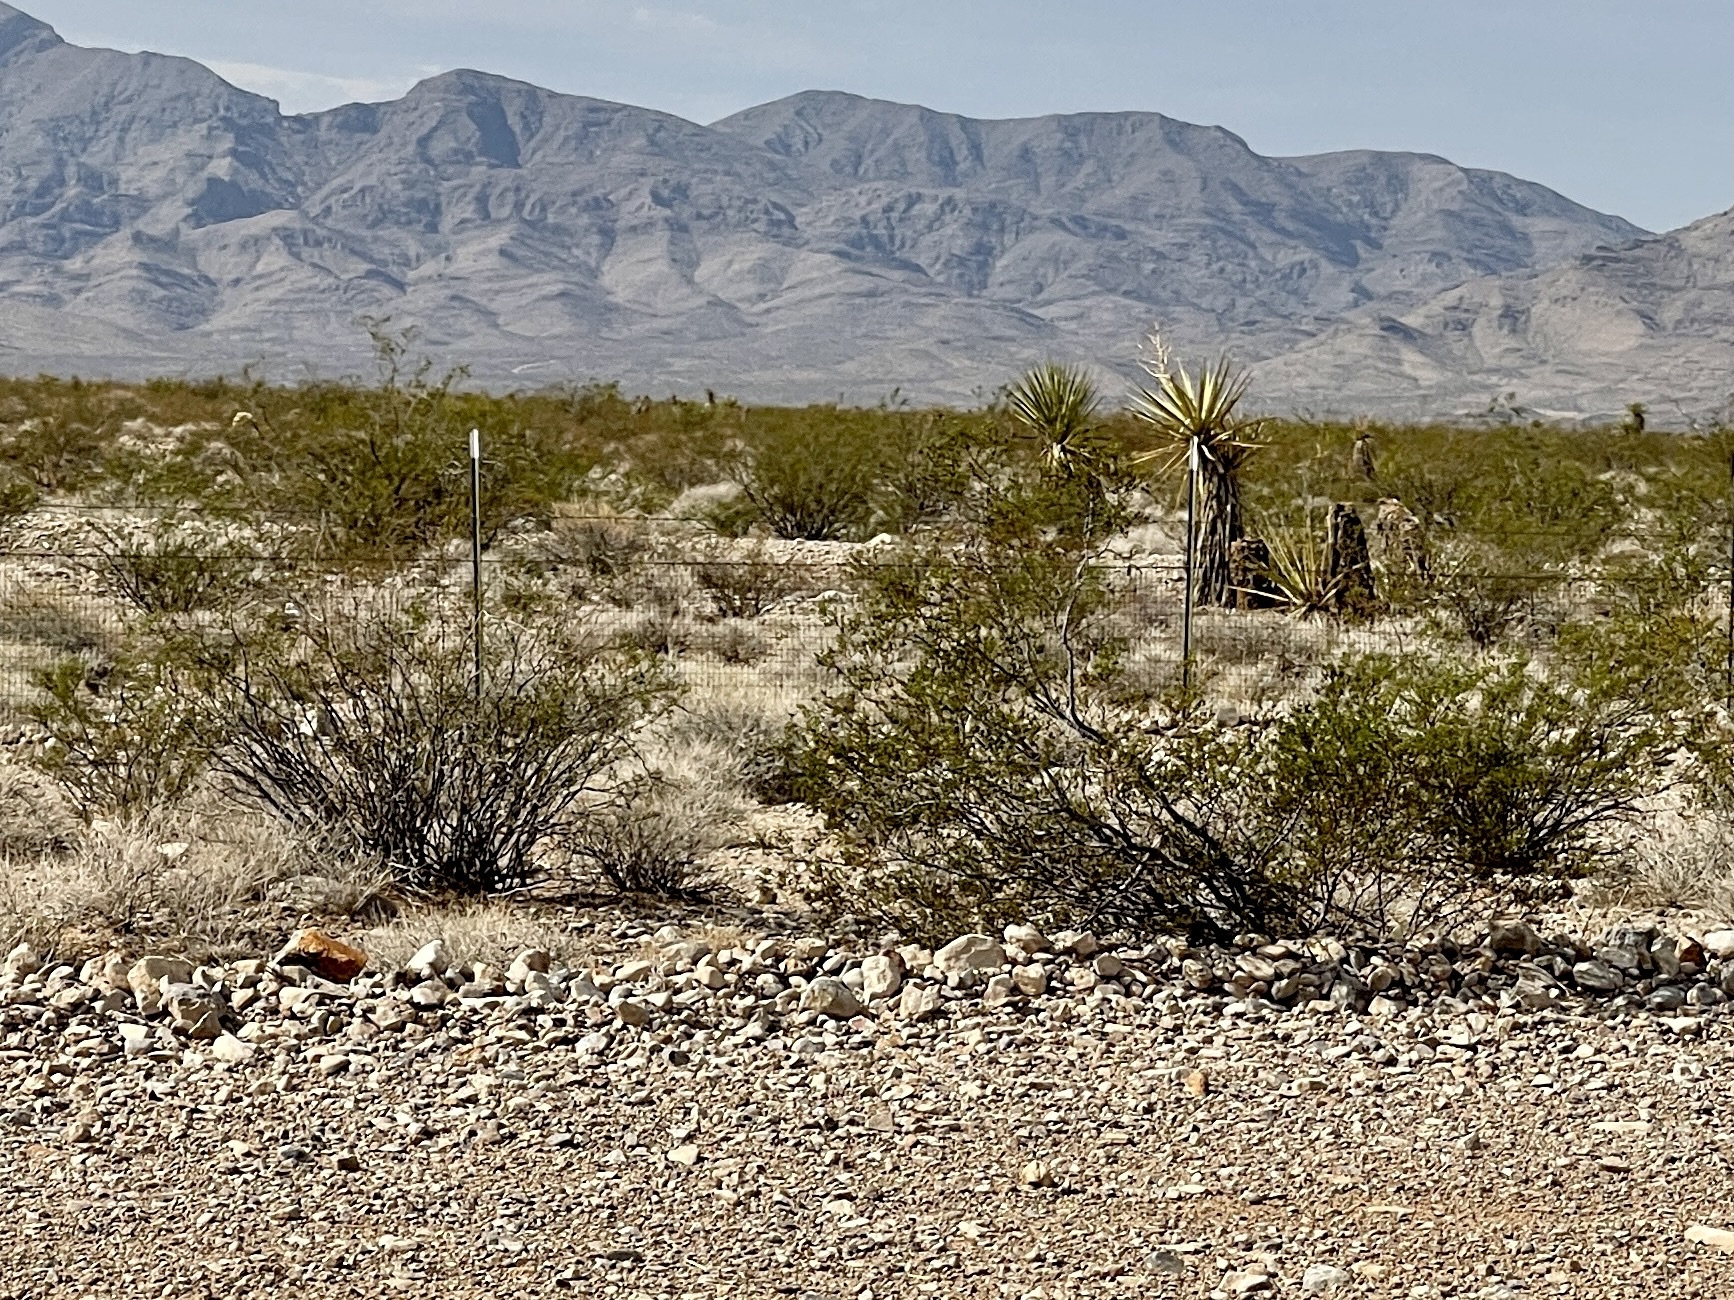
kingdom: Plantae
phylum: Tracheophyta
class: Magnoliopsida
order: Zygophyllales
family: Zygophyllaceae
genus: Larrea
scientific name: Larrea tridentata
